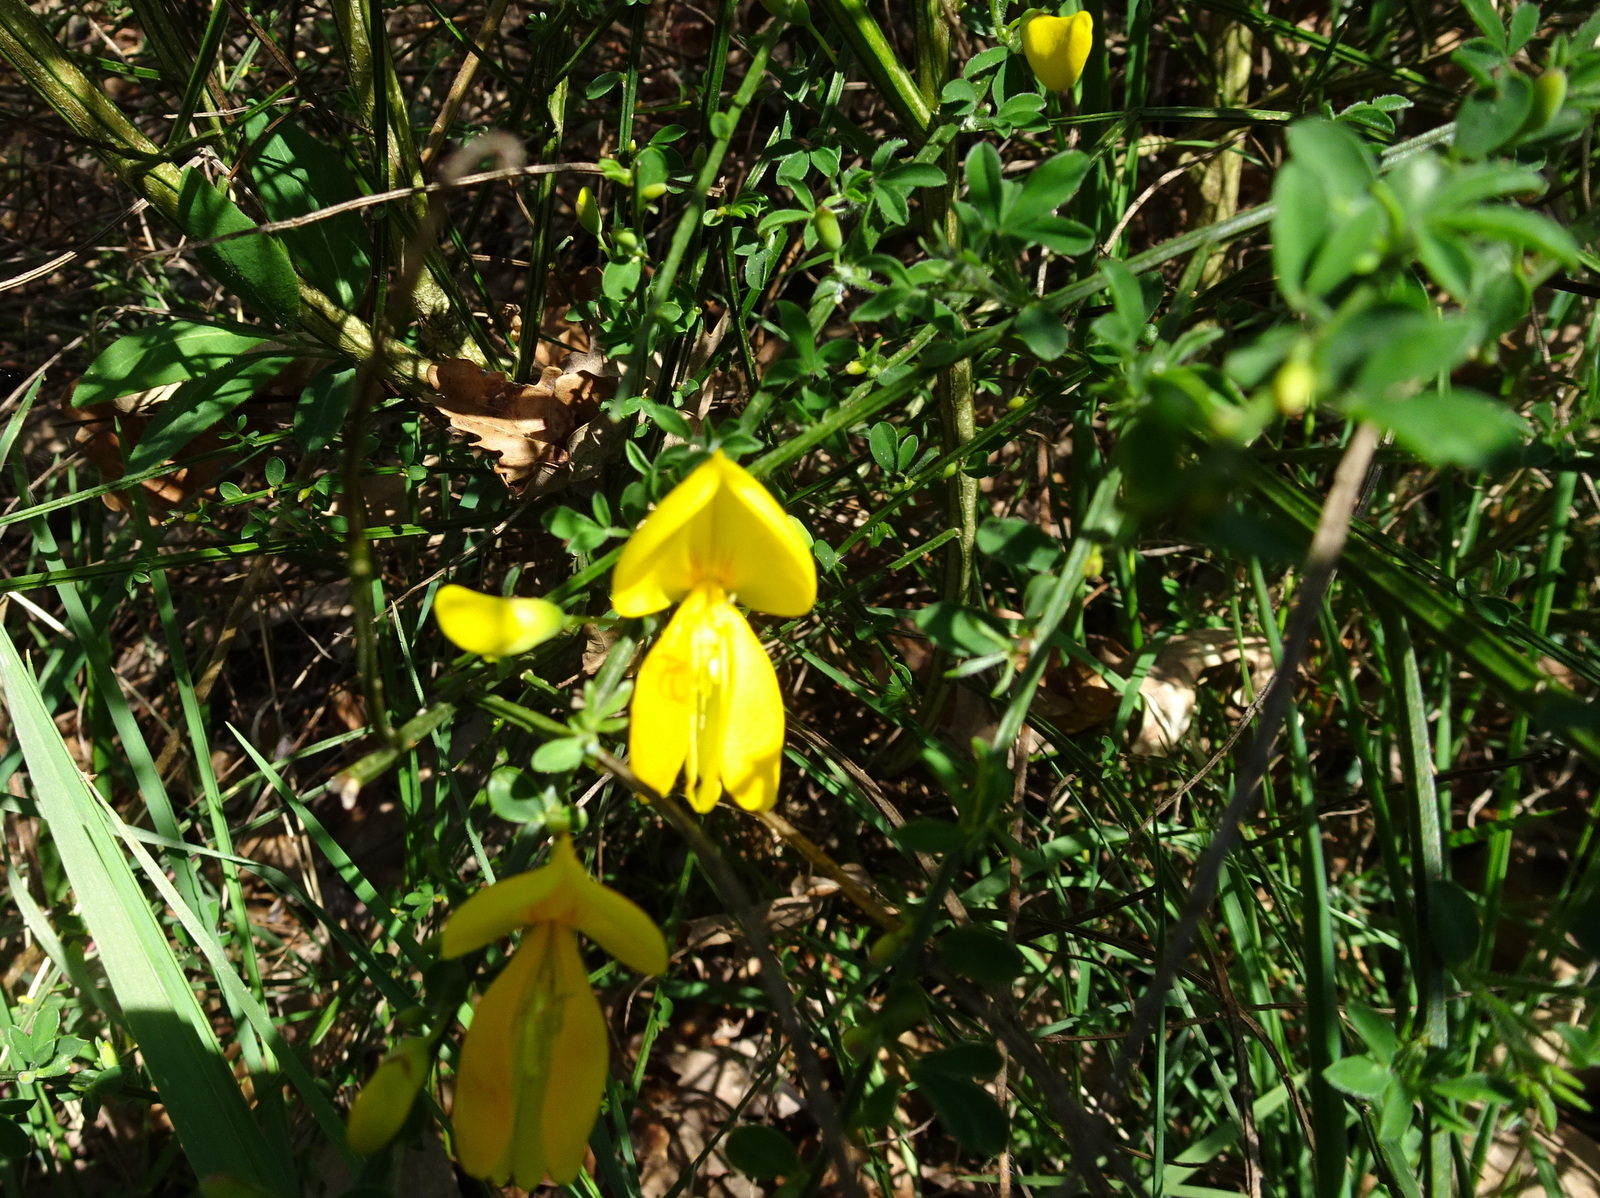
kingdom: Plantae
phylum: Tracheophyta
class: Magnoliopsida
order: Fabales
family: Fabaceae
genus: Cytisus
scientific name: Cytisus scoparius
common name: Scotch broom
